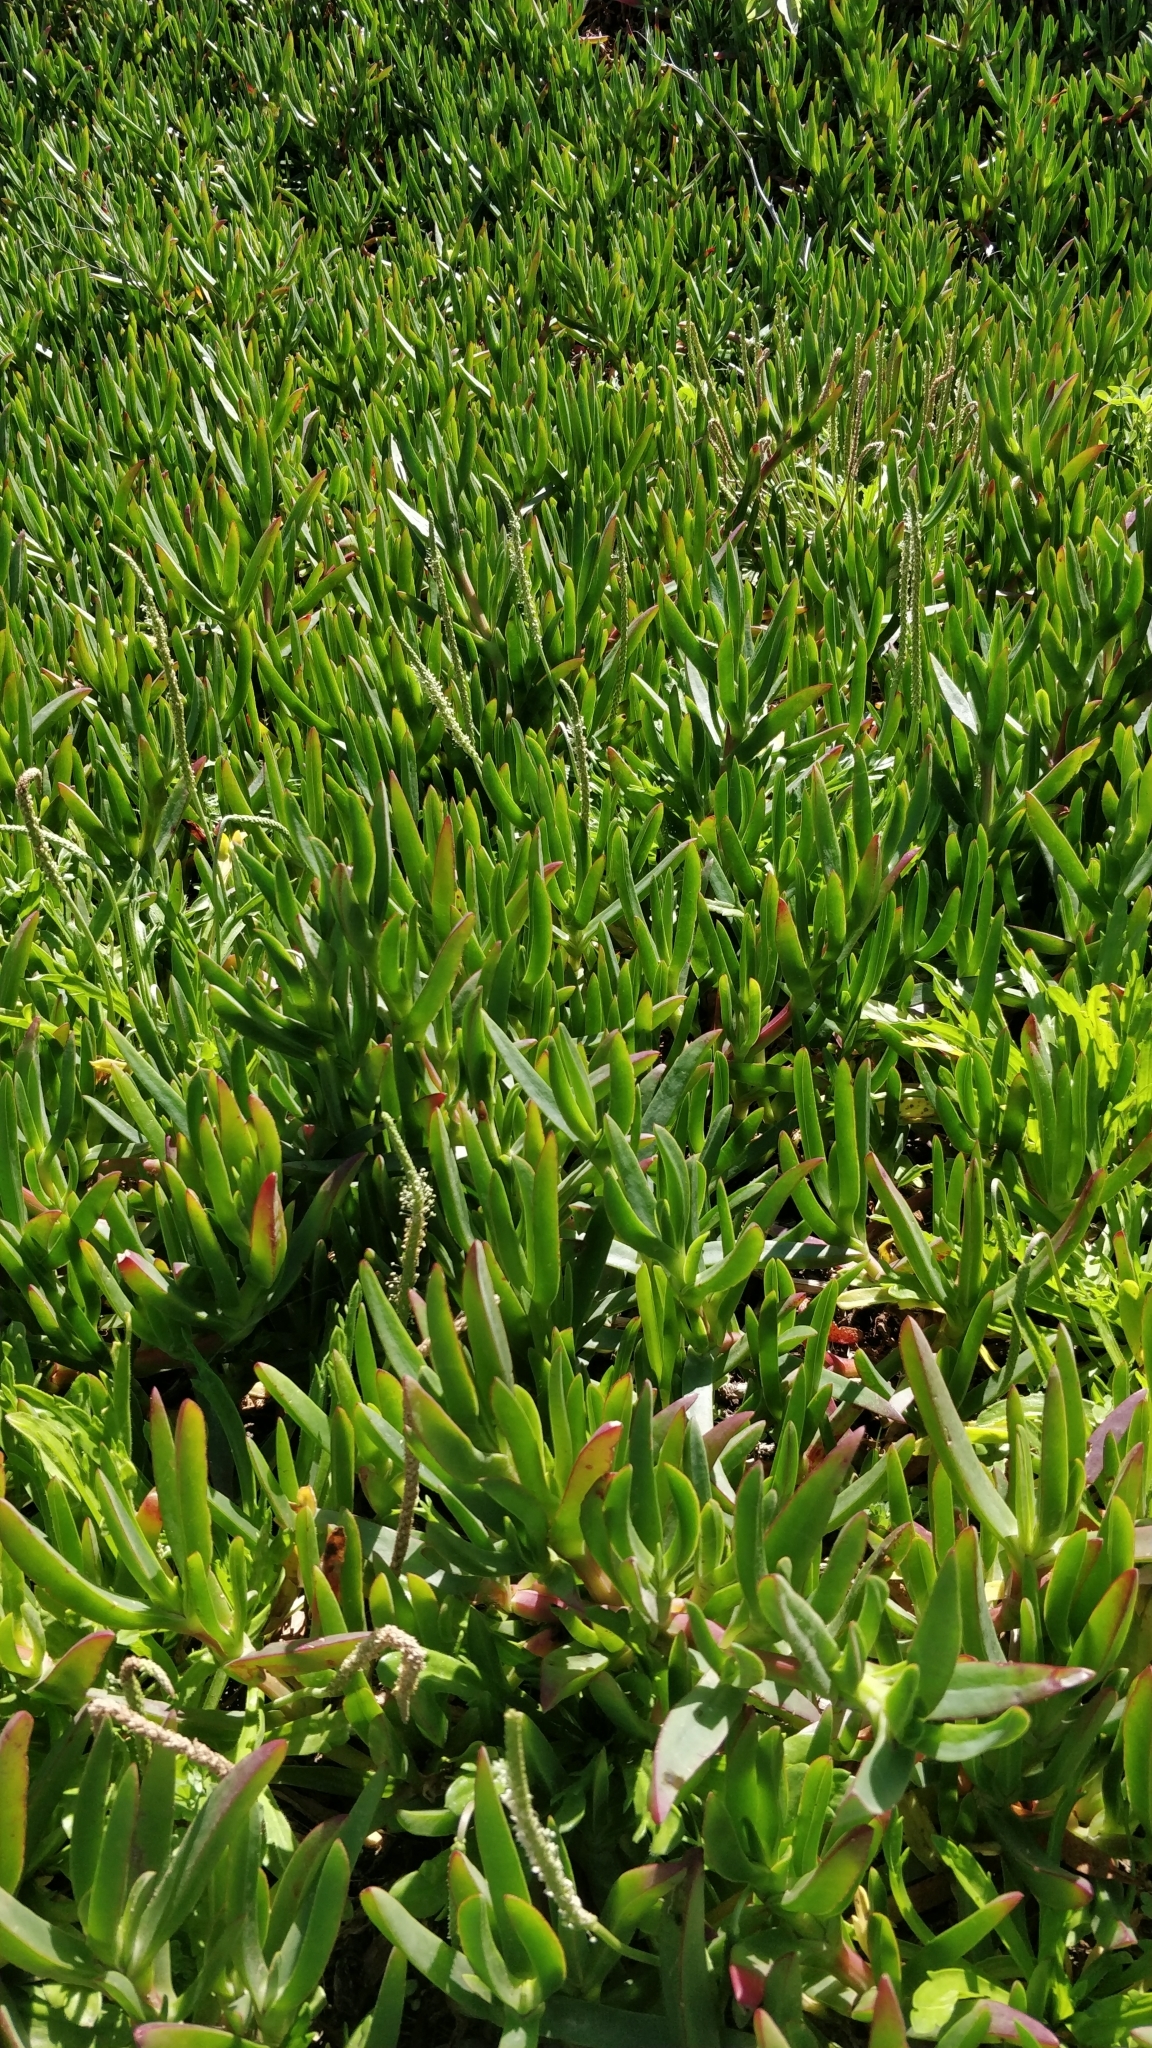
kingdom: Plantae
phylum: Tracheophyta
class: Magnoliopsida
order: Caryophyllales
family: Aizoaceae
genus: Carpobrotus
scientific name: Carpobrotus edulis
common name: Hottentot-fig
